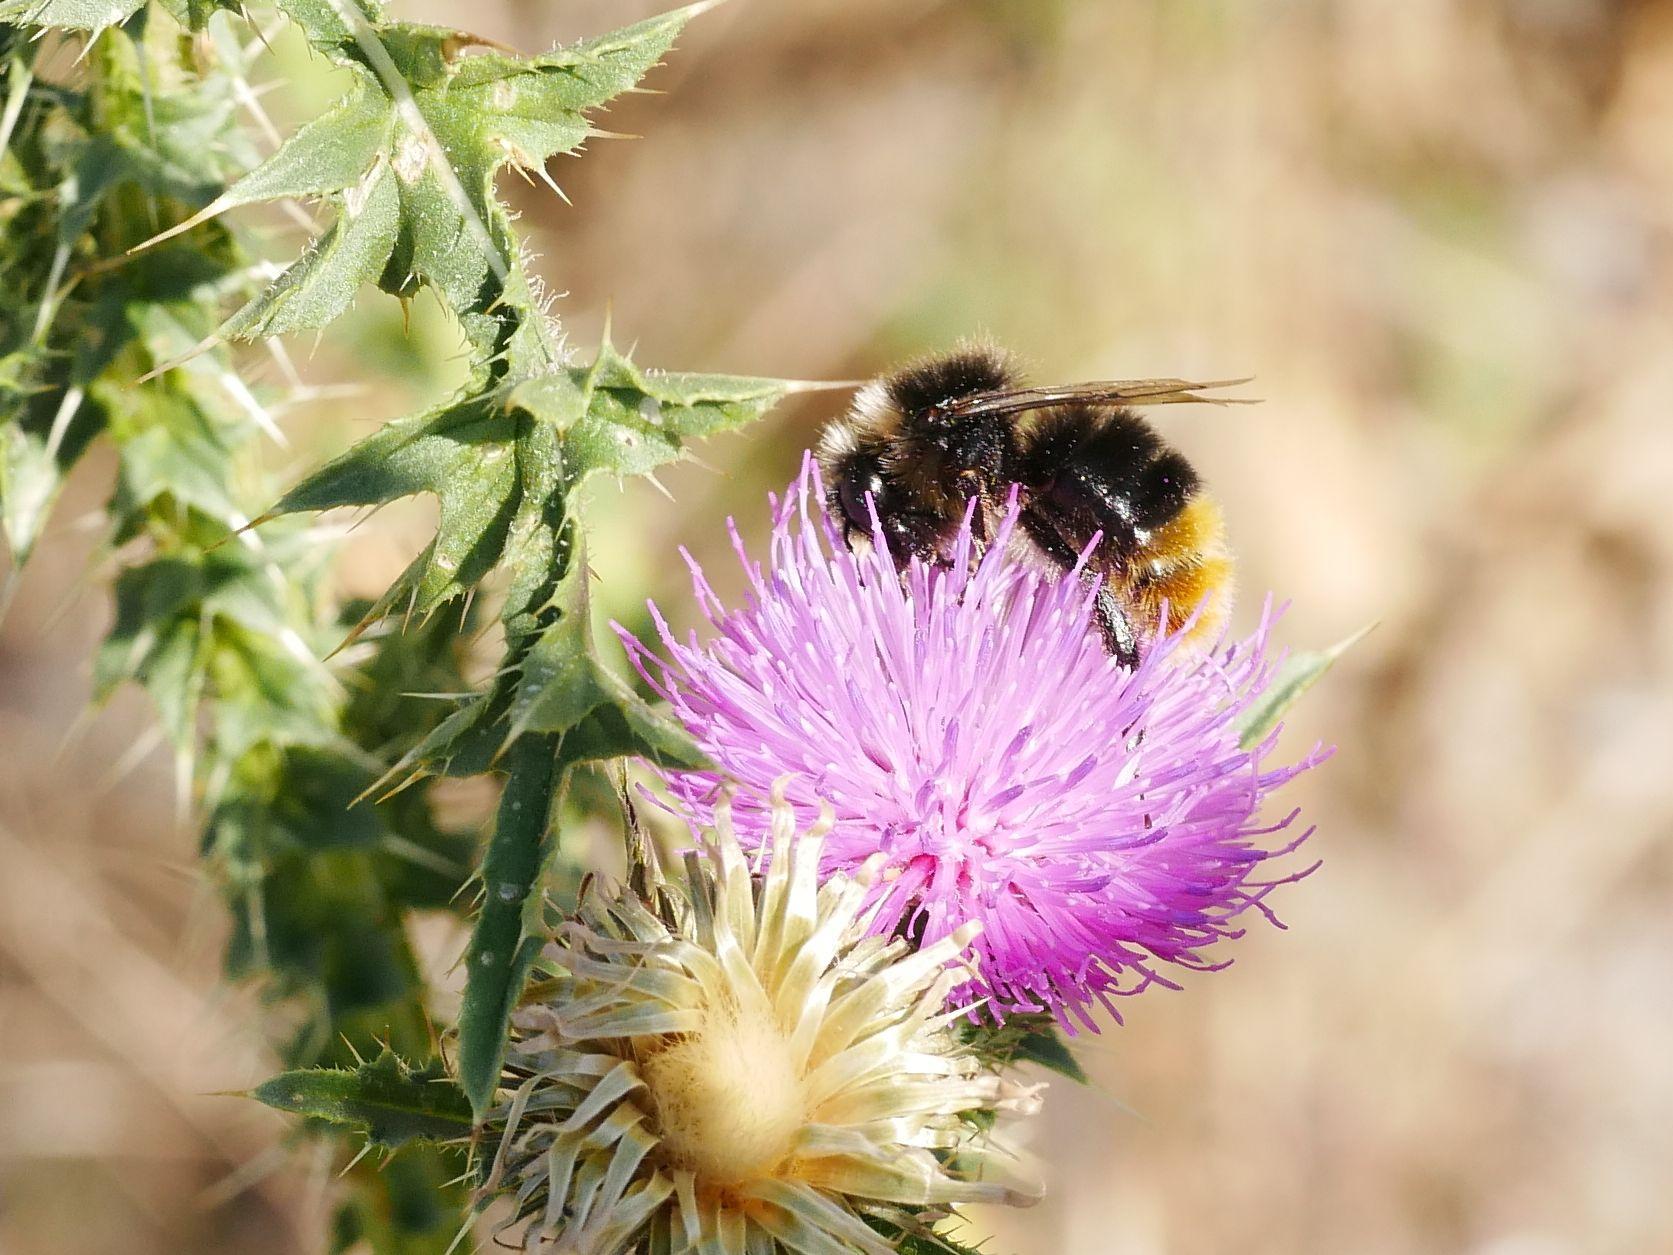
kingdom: Animalia
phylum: Arthropoda
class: Insecta
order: Hymenoptera
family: Apidae
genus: Bombus
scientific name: Bombus lapidarius
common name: Large red-tailed humble-bee
